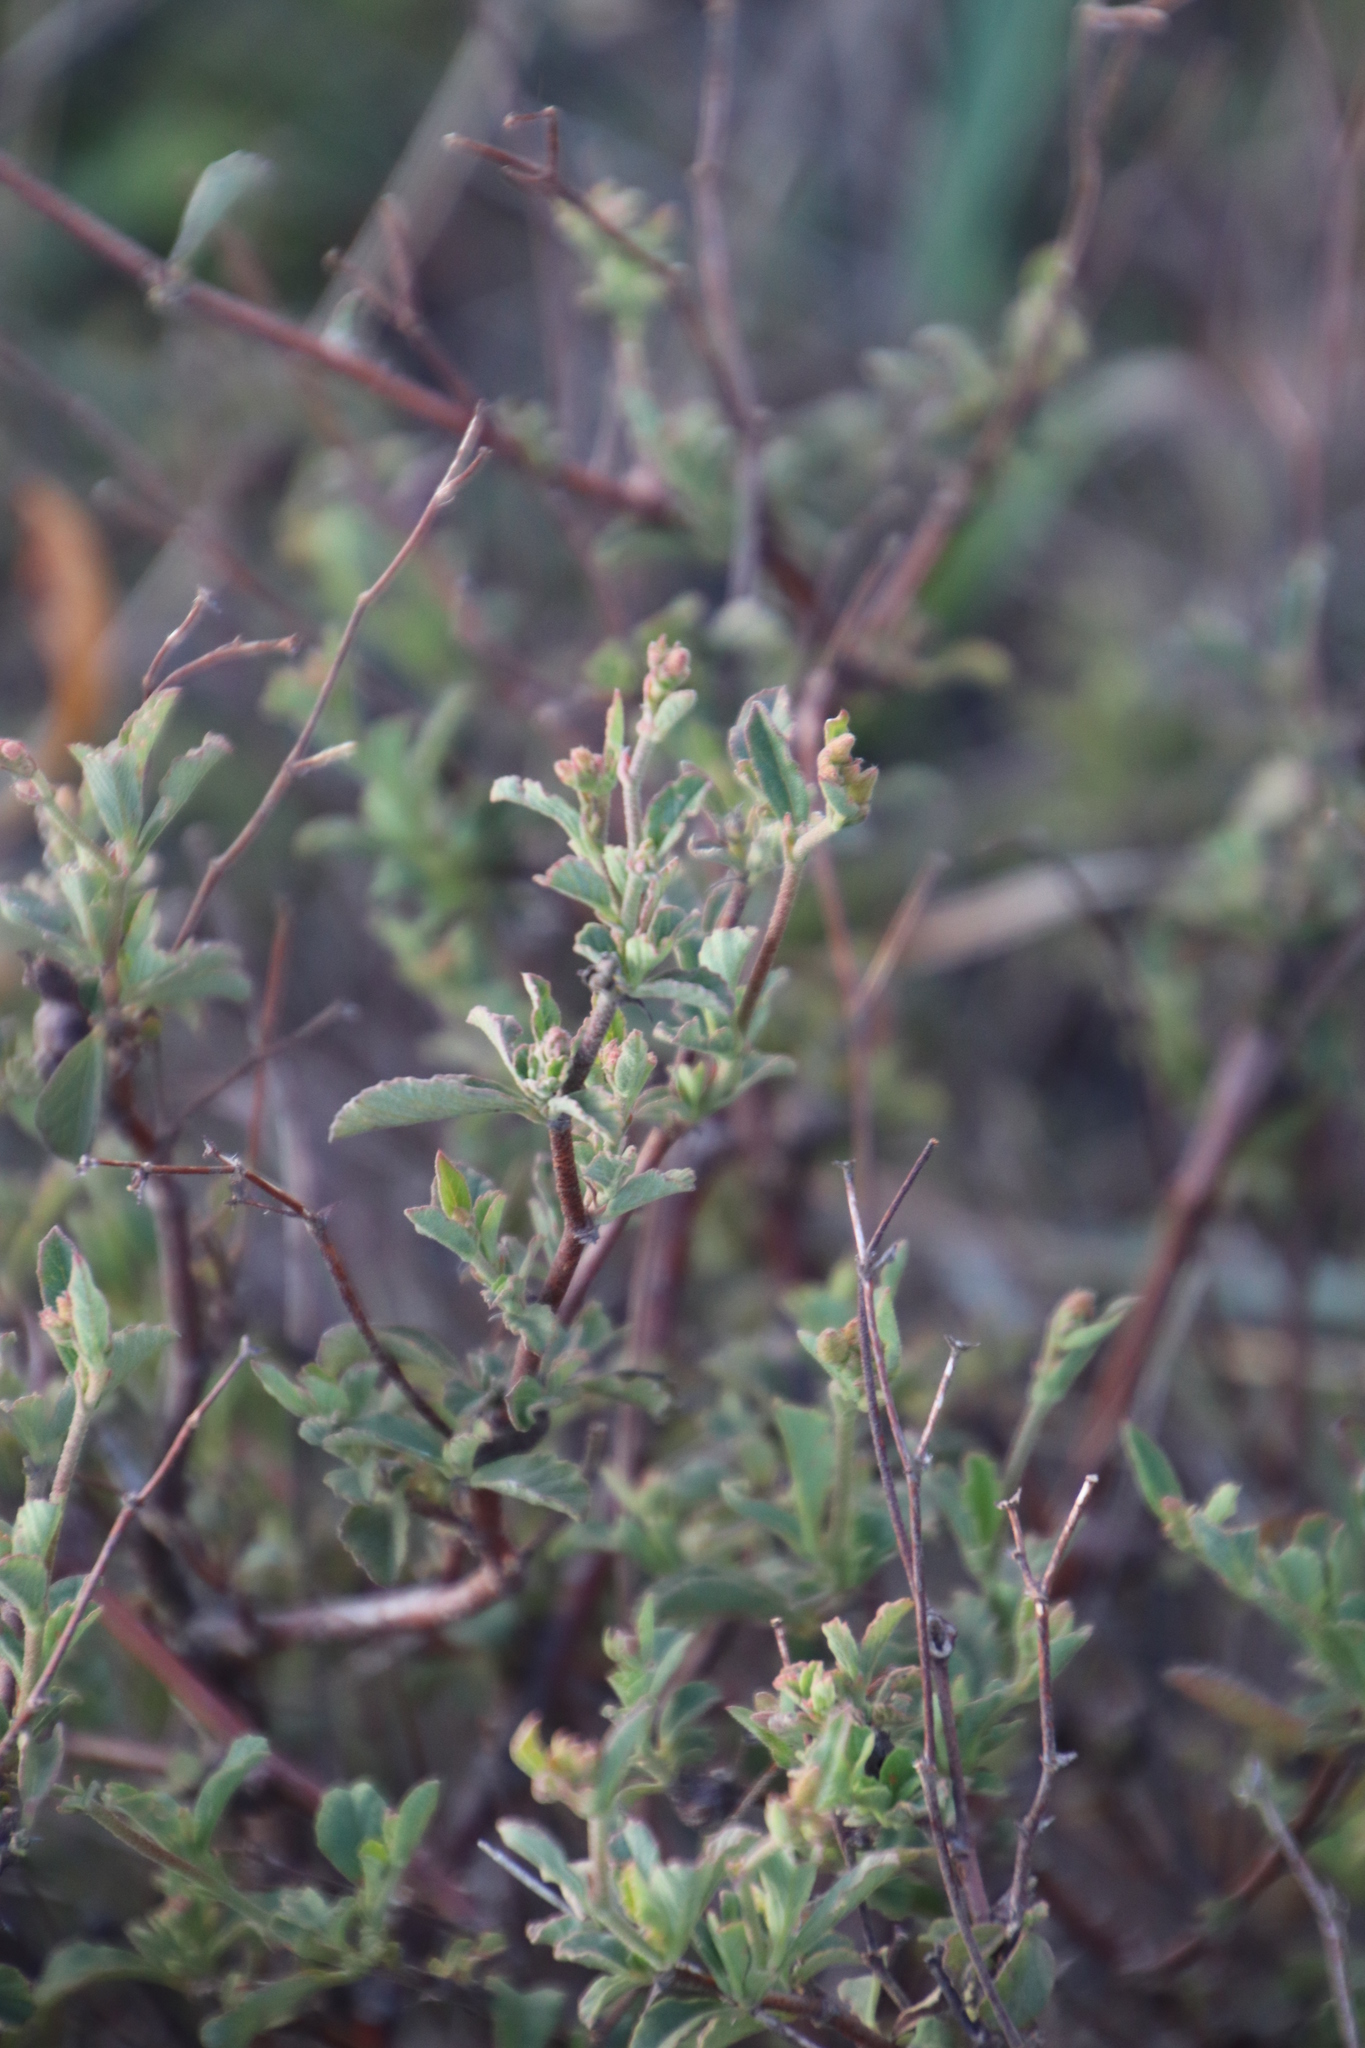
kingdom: Plantae
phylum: Tracheophyta
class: Magnoliopsida
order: Malvales
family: Malvaceae
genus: Hermannia
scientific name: Hermannia multiflora
